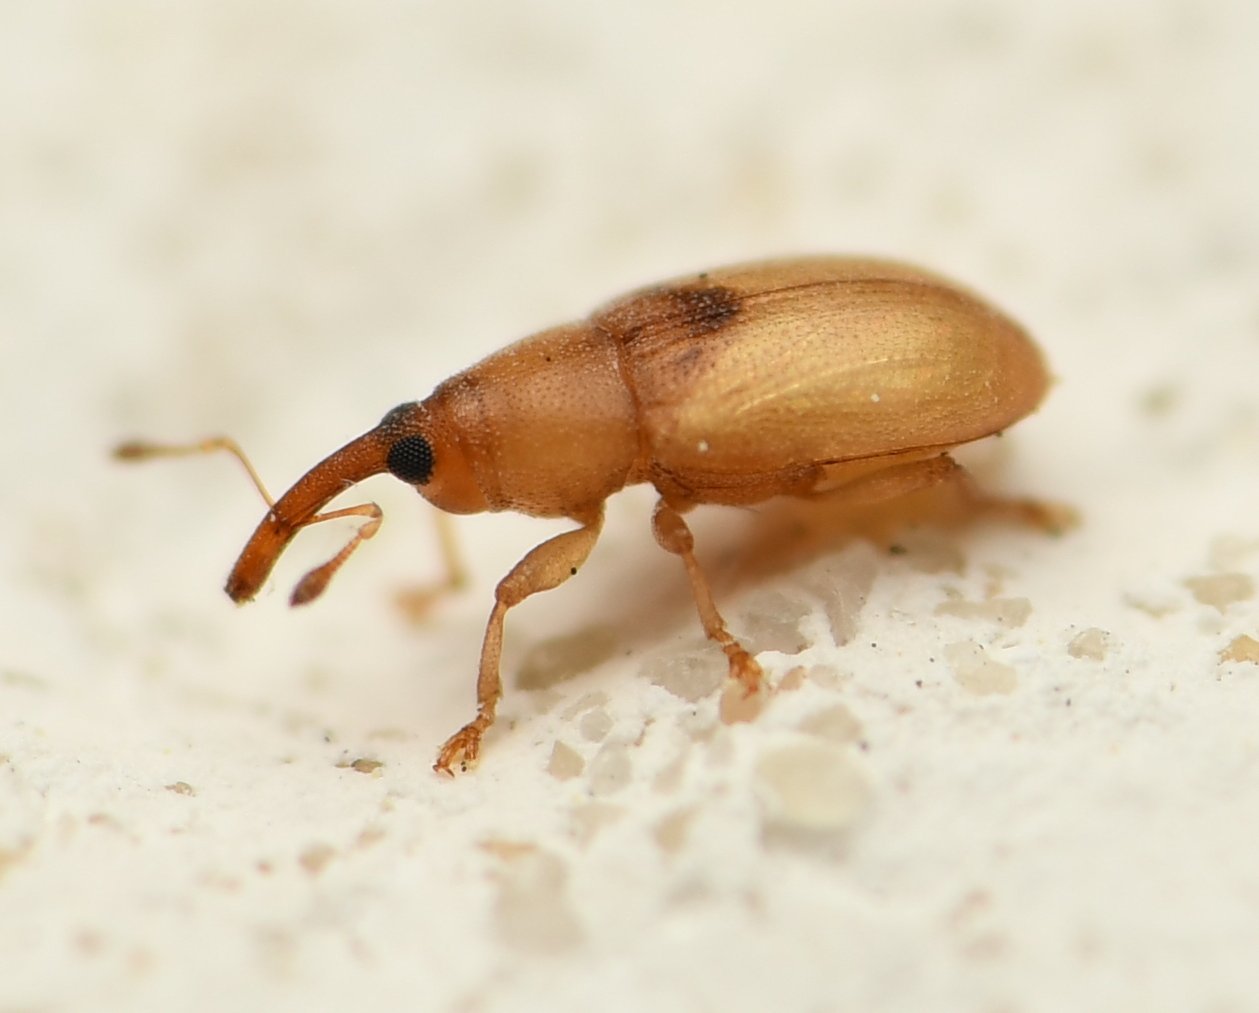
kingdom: Animalia
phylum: Arthropoda
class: Insecta
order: Coleoptera
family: Curculionidae
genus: Notolomus
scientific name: Notolomus basalis
